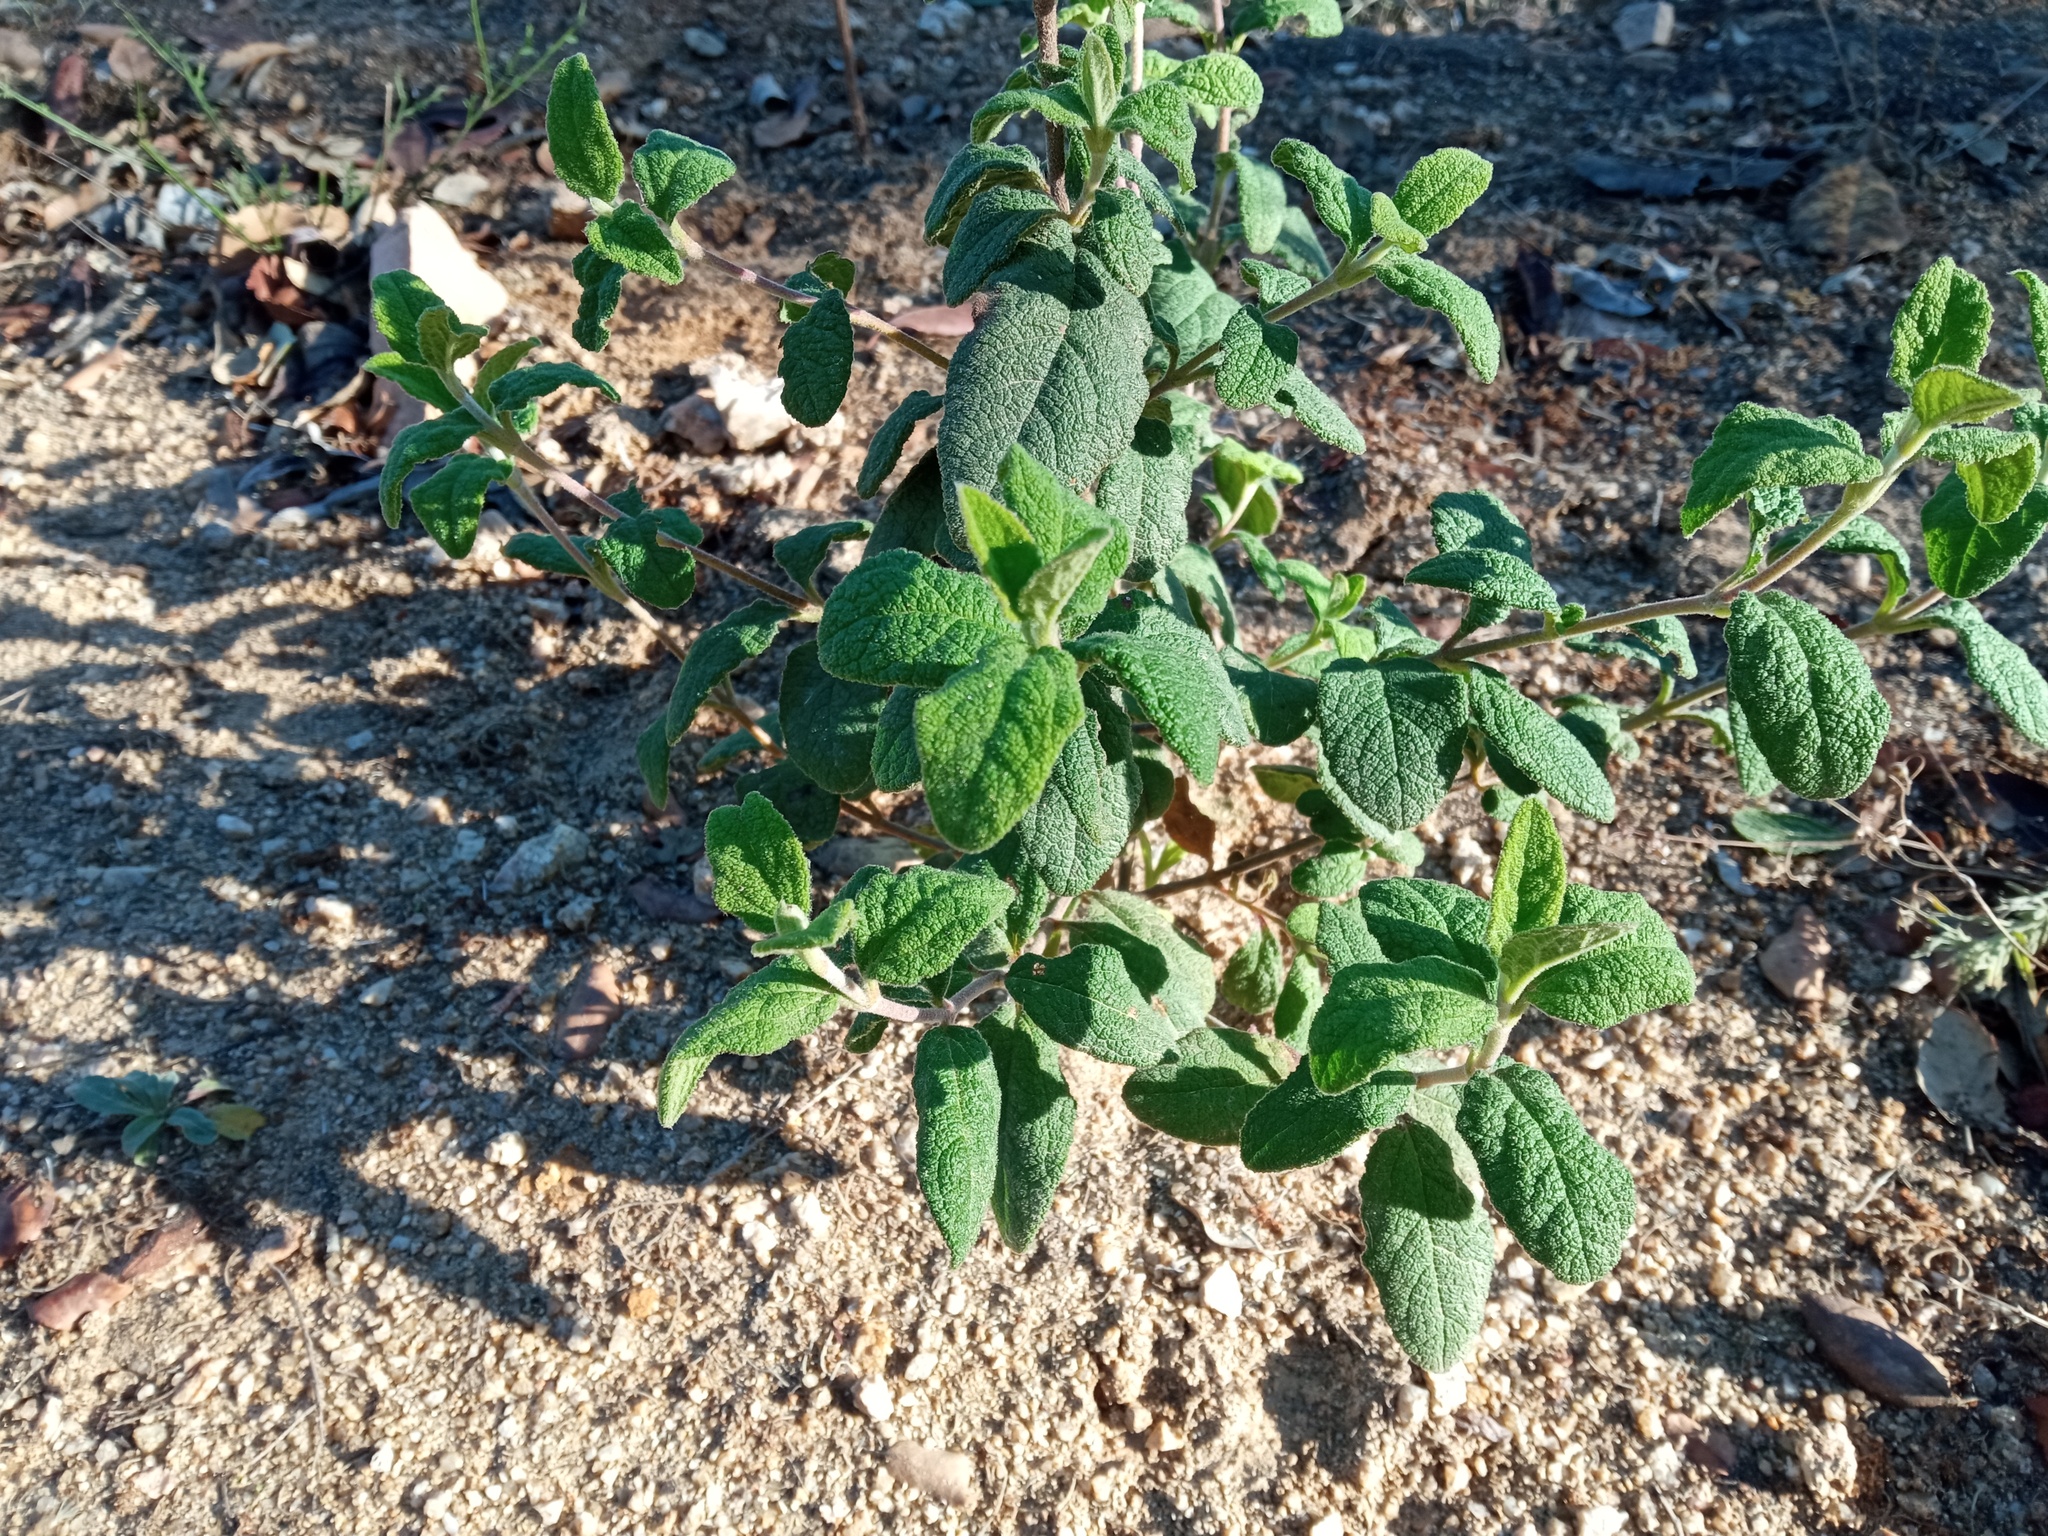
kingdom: Plantae
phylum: Tracheophyta
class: Magnoliopsida
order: Malvales
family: Cistaceae
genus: Cistus
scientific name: Cistus salviifolius
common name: Salvia cistus
